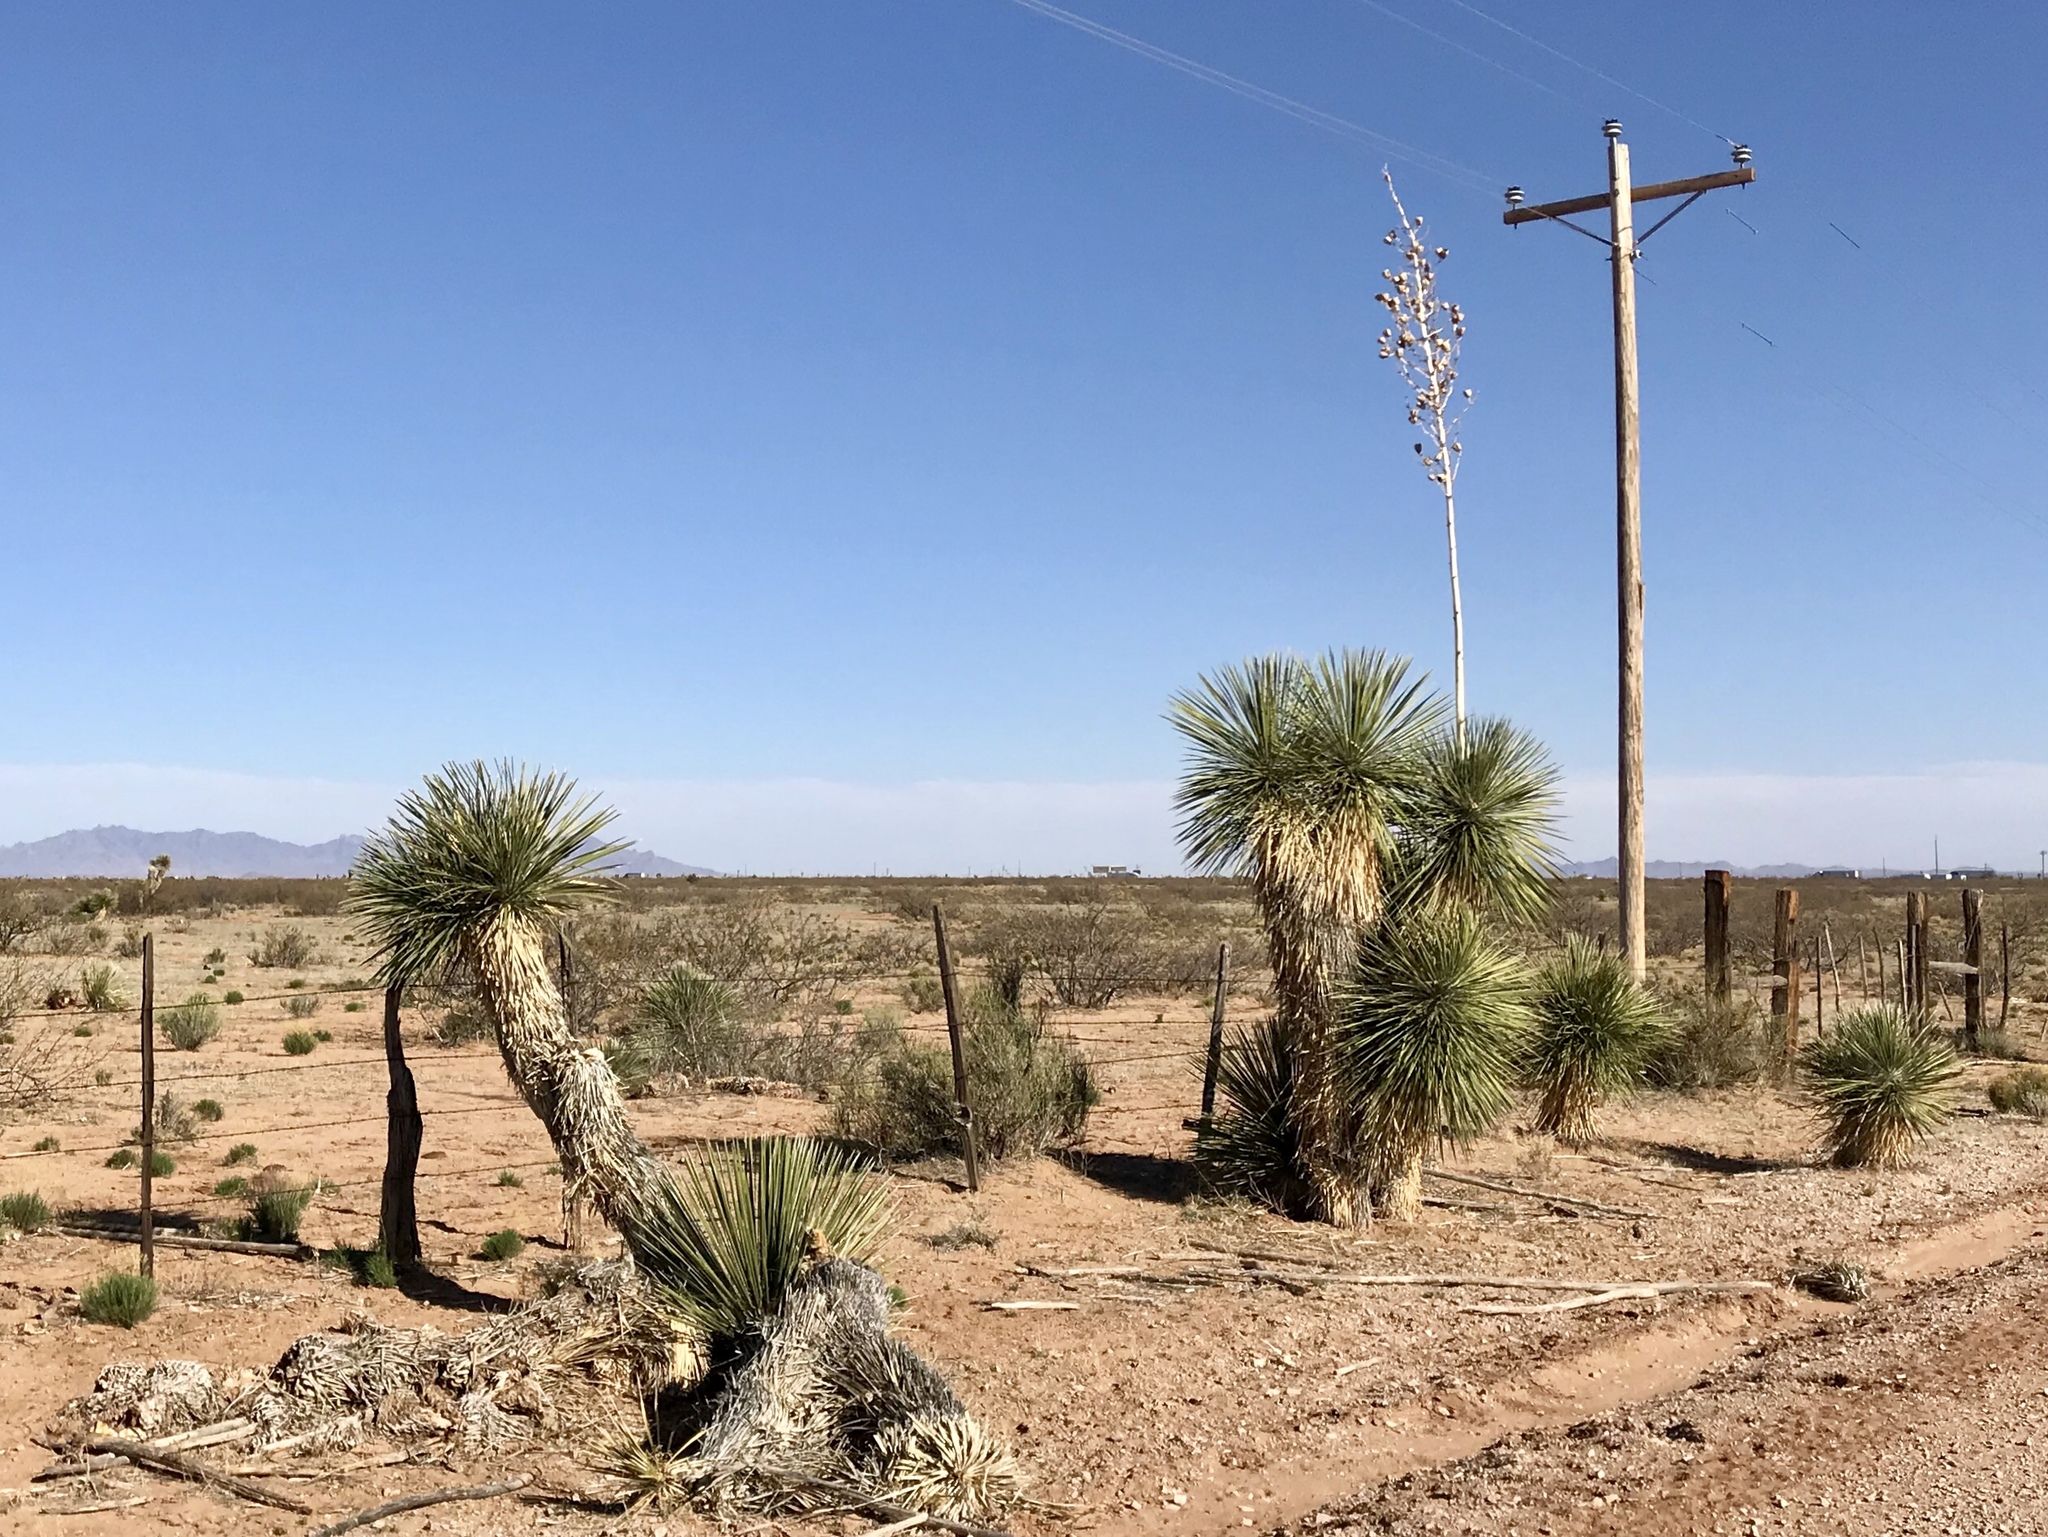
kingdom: Plantae
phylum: Tracheophyta
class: Liliopsida
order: Asparagales
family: Asparagaceae
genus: Yucca
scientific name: Yucca elata
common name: Palmella
